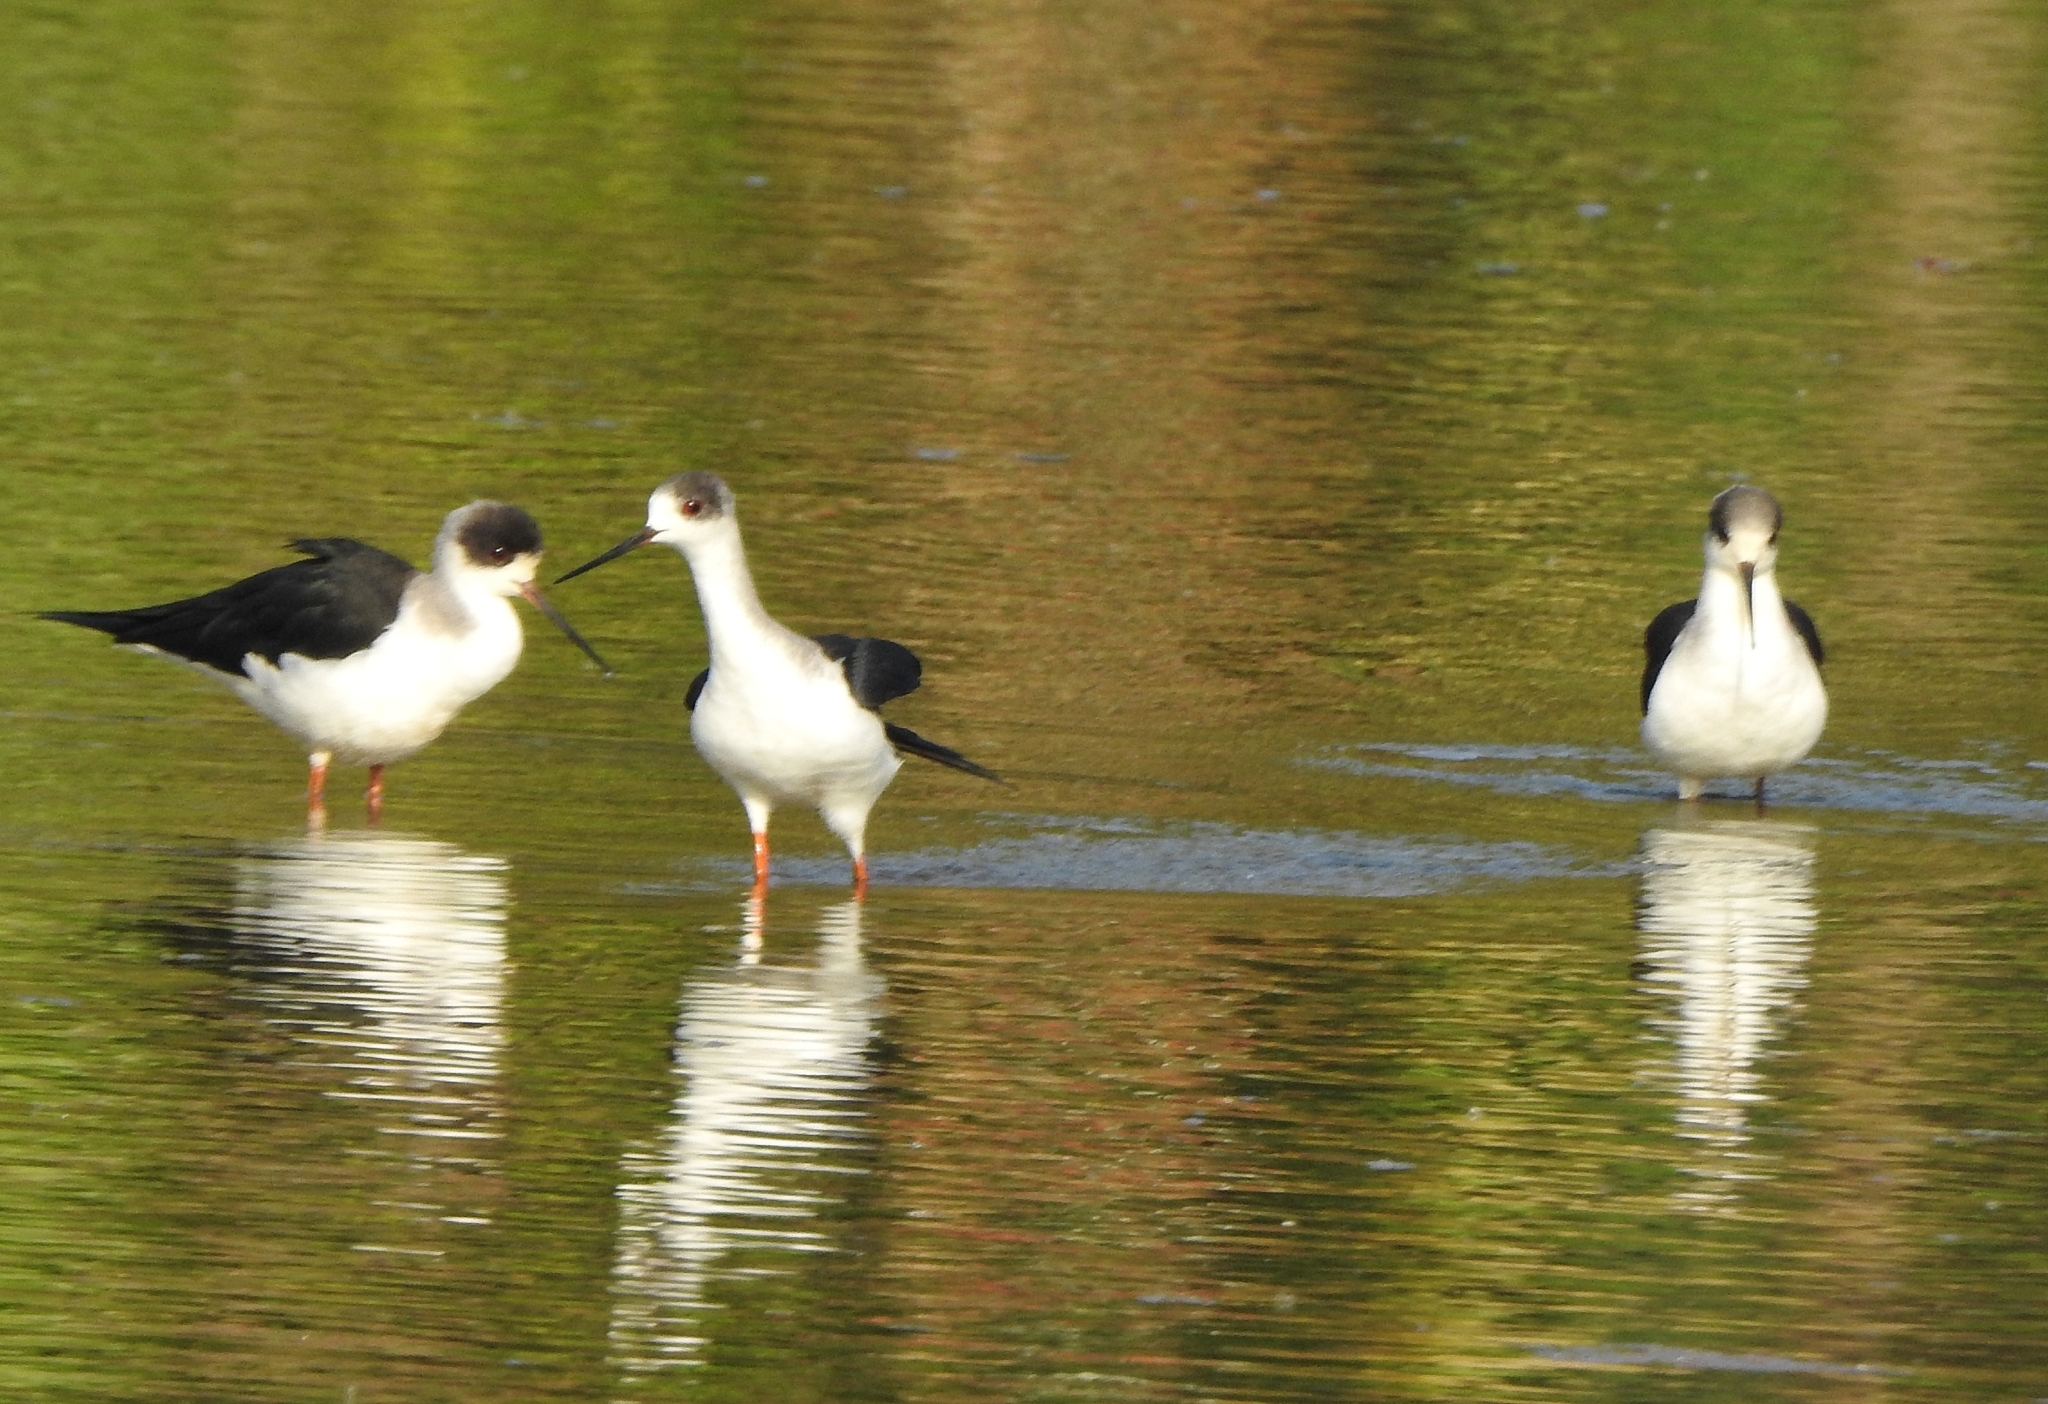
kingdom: Animalia
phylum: Chordata
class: Aves
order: Charadriiformes
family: Recurvirostridae
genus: Himantopus
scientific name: Himantopus himantopus
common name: Black-winged stilt
